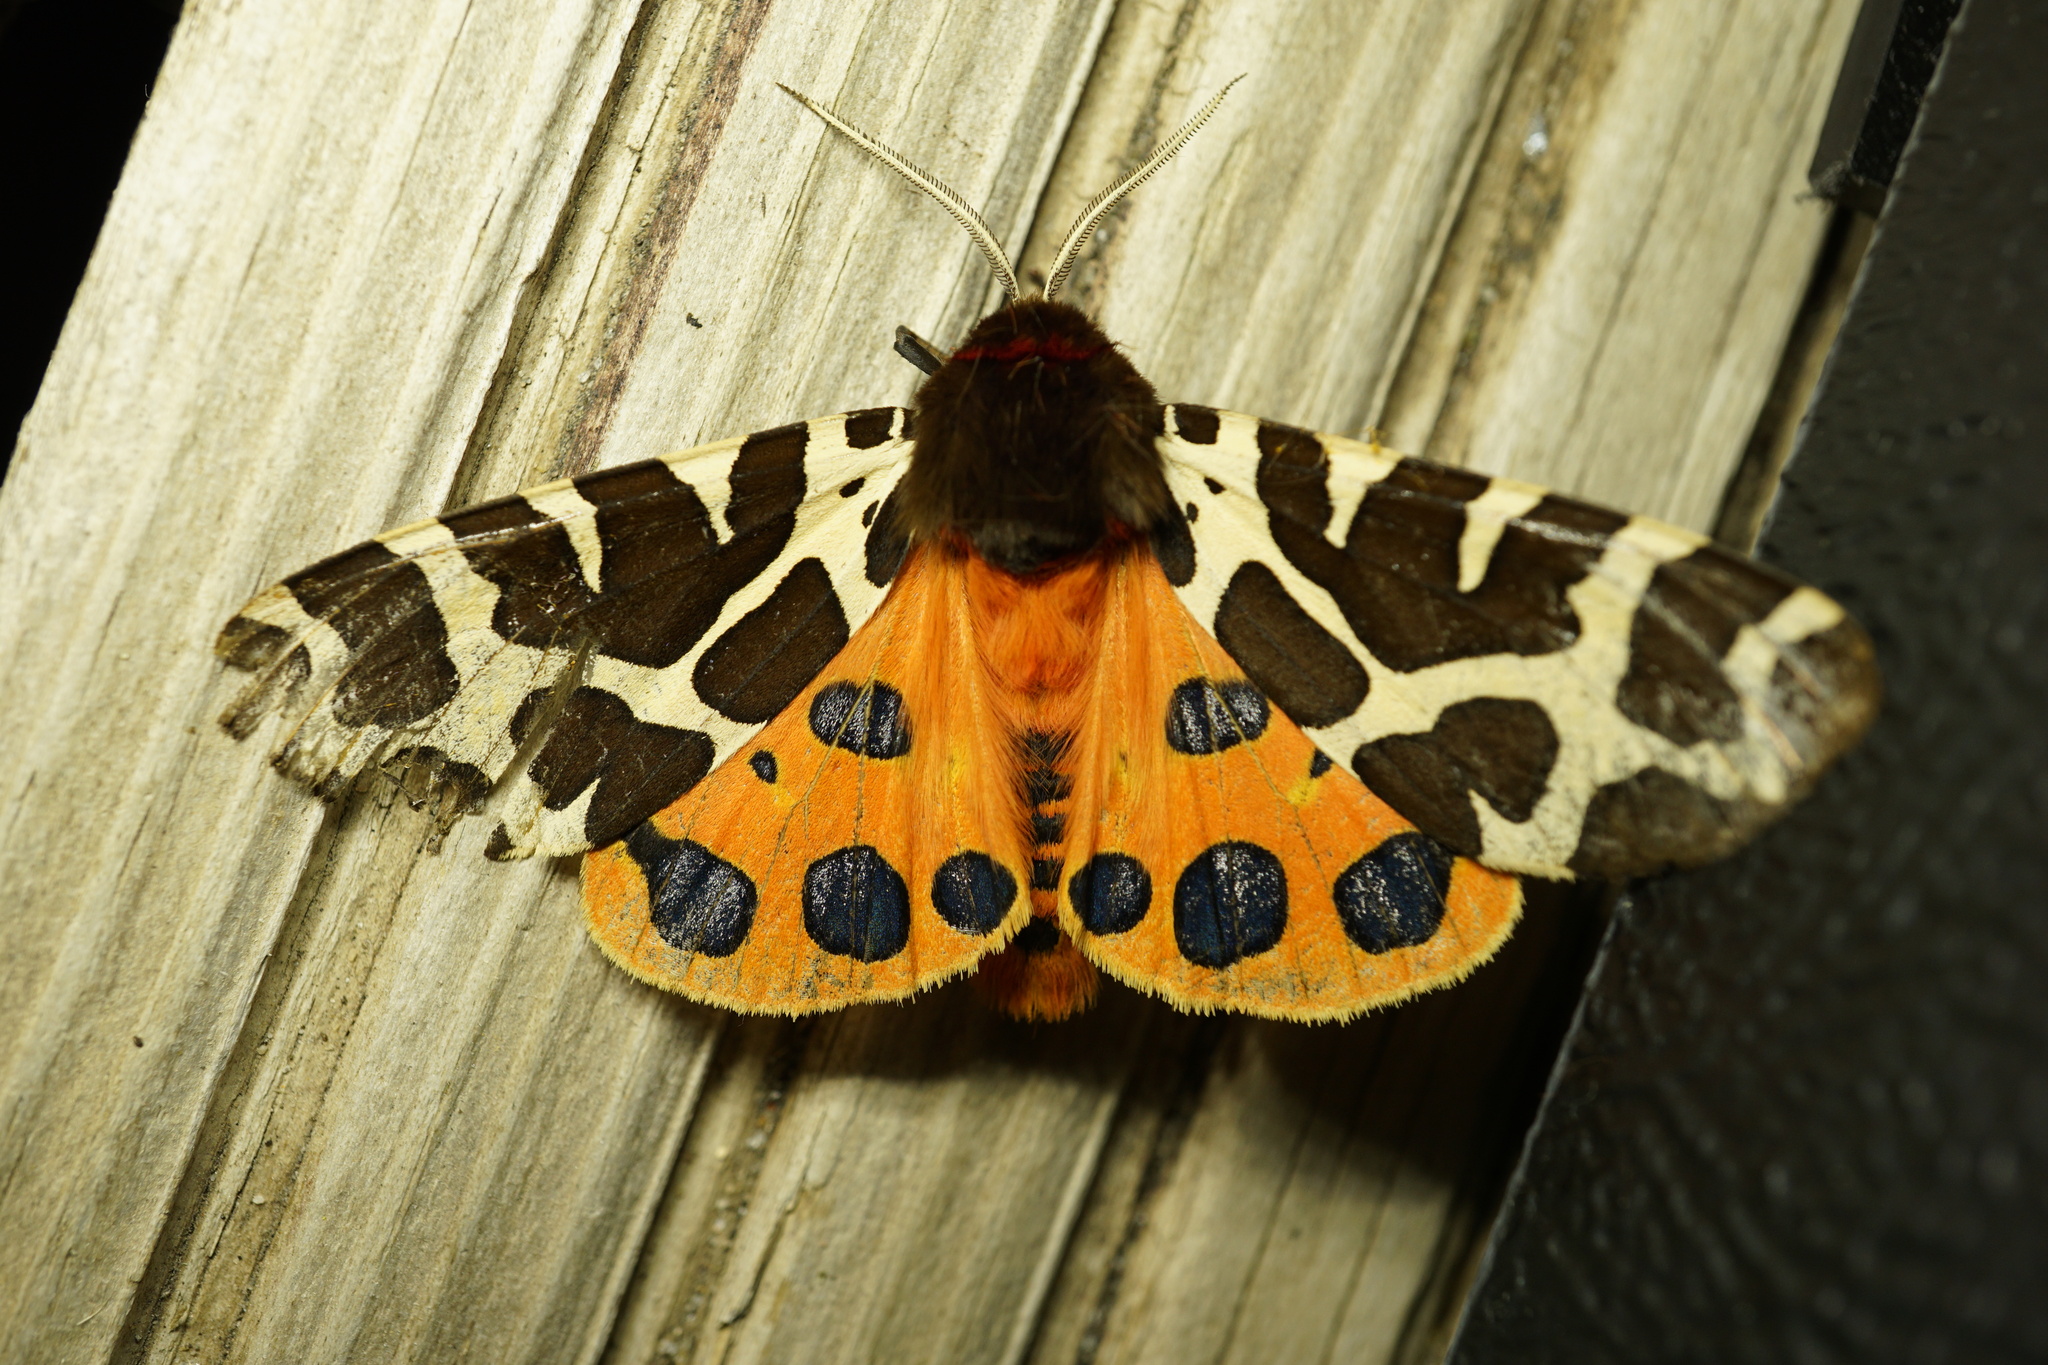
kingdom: Animalia
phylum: Arthropoda
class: Insecta
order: Lepidoptera
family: Erebidae
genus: Arctia
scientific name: Arctia caja
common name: Garden tiger
